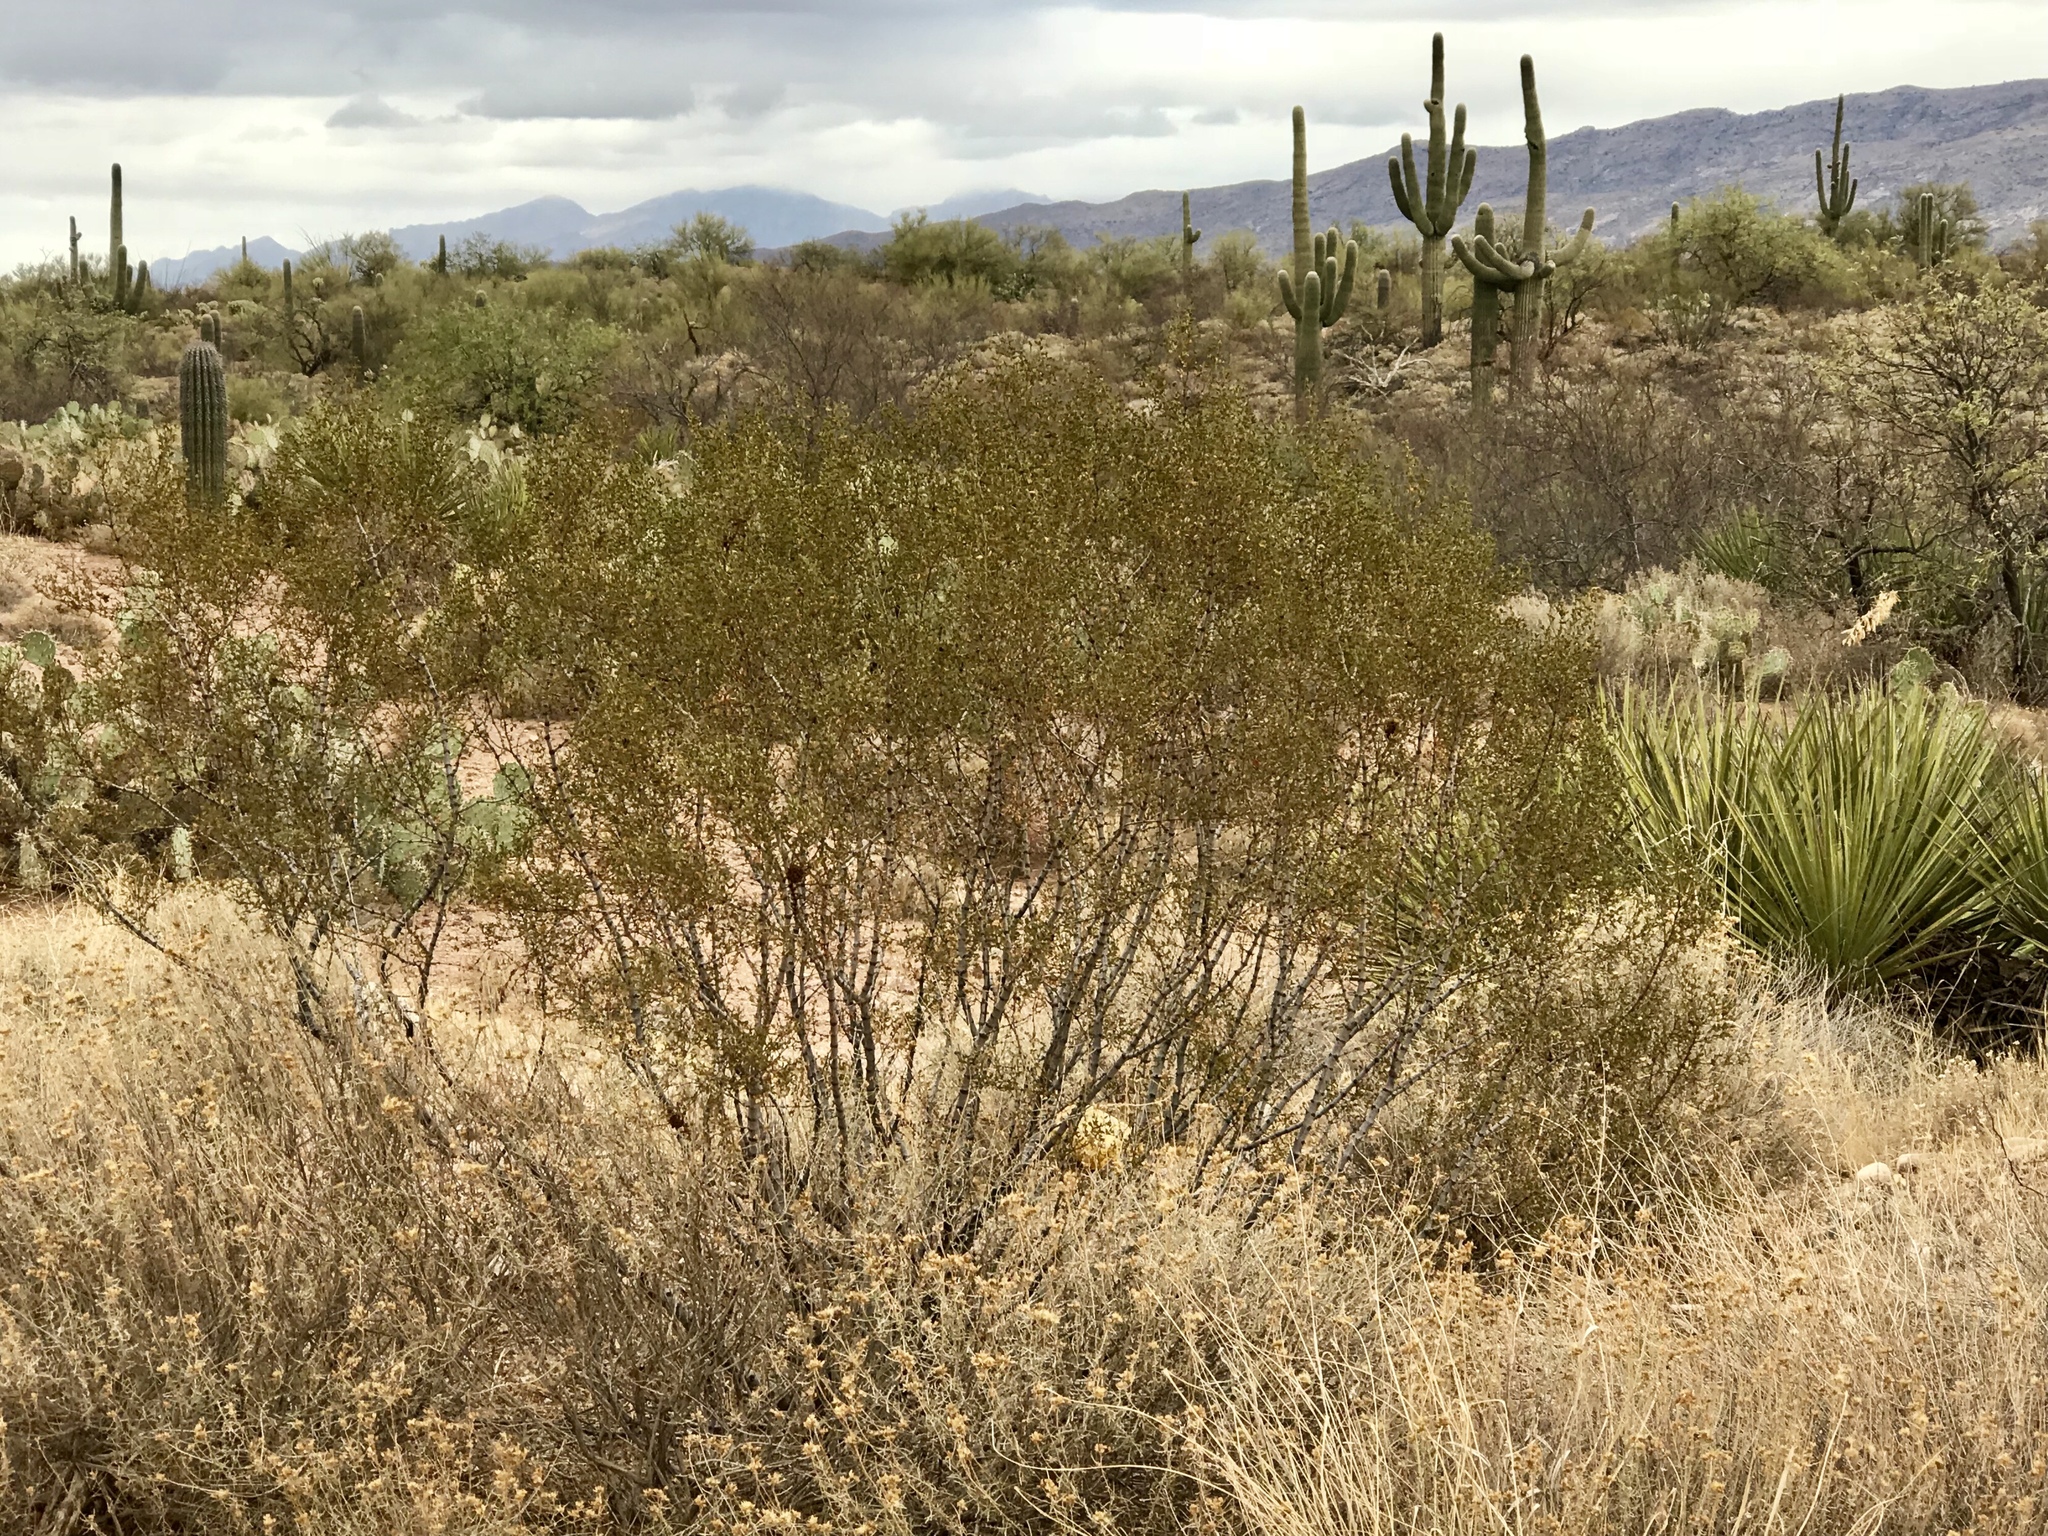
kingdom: Plantae
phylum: Tracheophyta
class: Magnoliopsida
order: Zygophyllales
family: Zygophyllaceae
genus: Larrea
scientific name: Larrea tridentata
